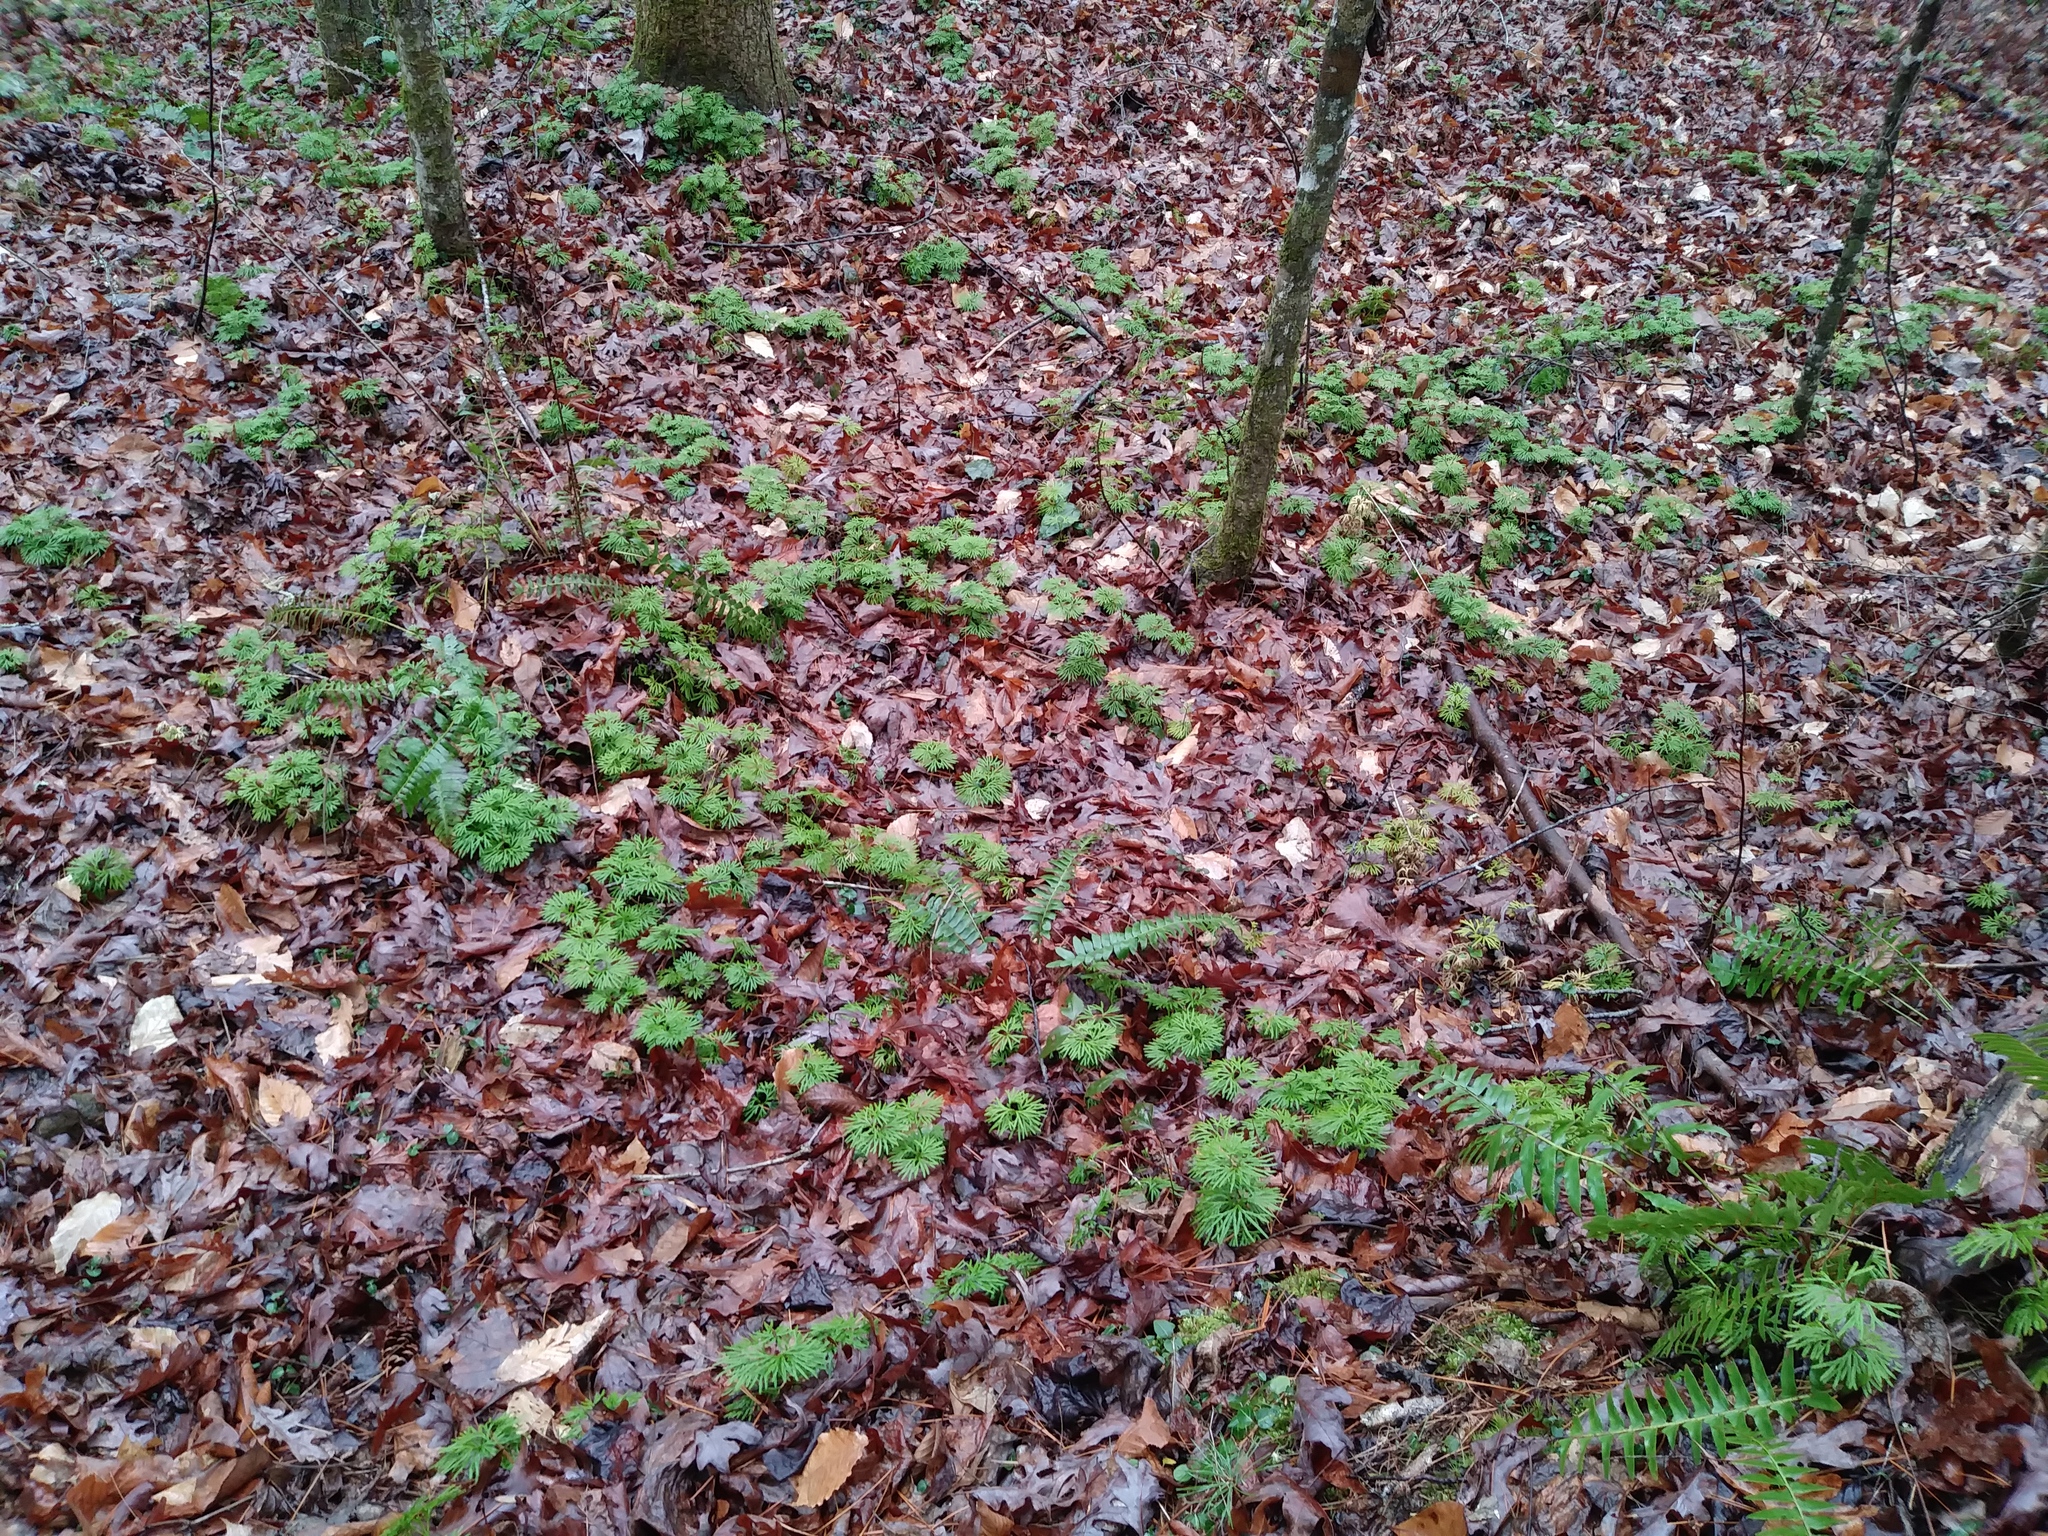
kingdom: Plantae
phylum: Tracheophyta
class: Lycopodiopsida
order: Lycopodiales
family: Lycopodiaceae
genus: Diphasiastrum
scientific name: Diphasiastrum digitatum
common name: Southern running-pine
